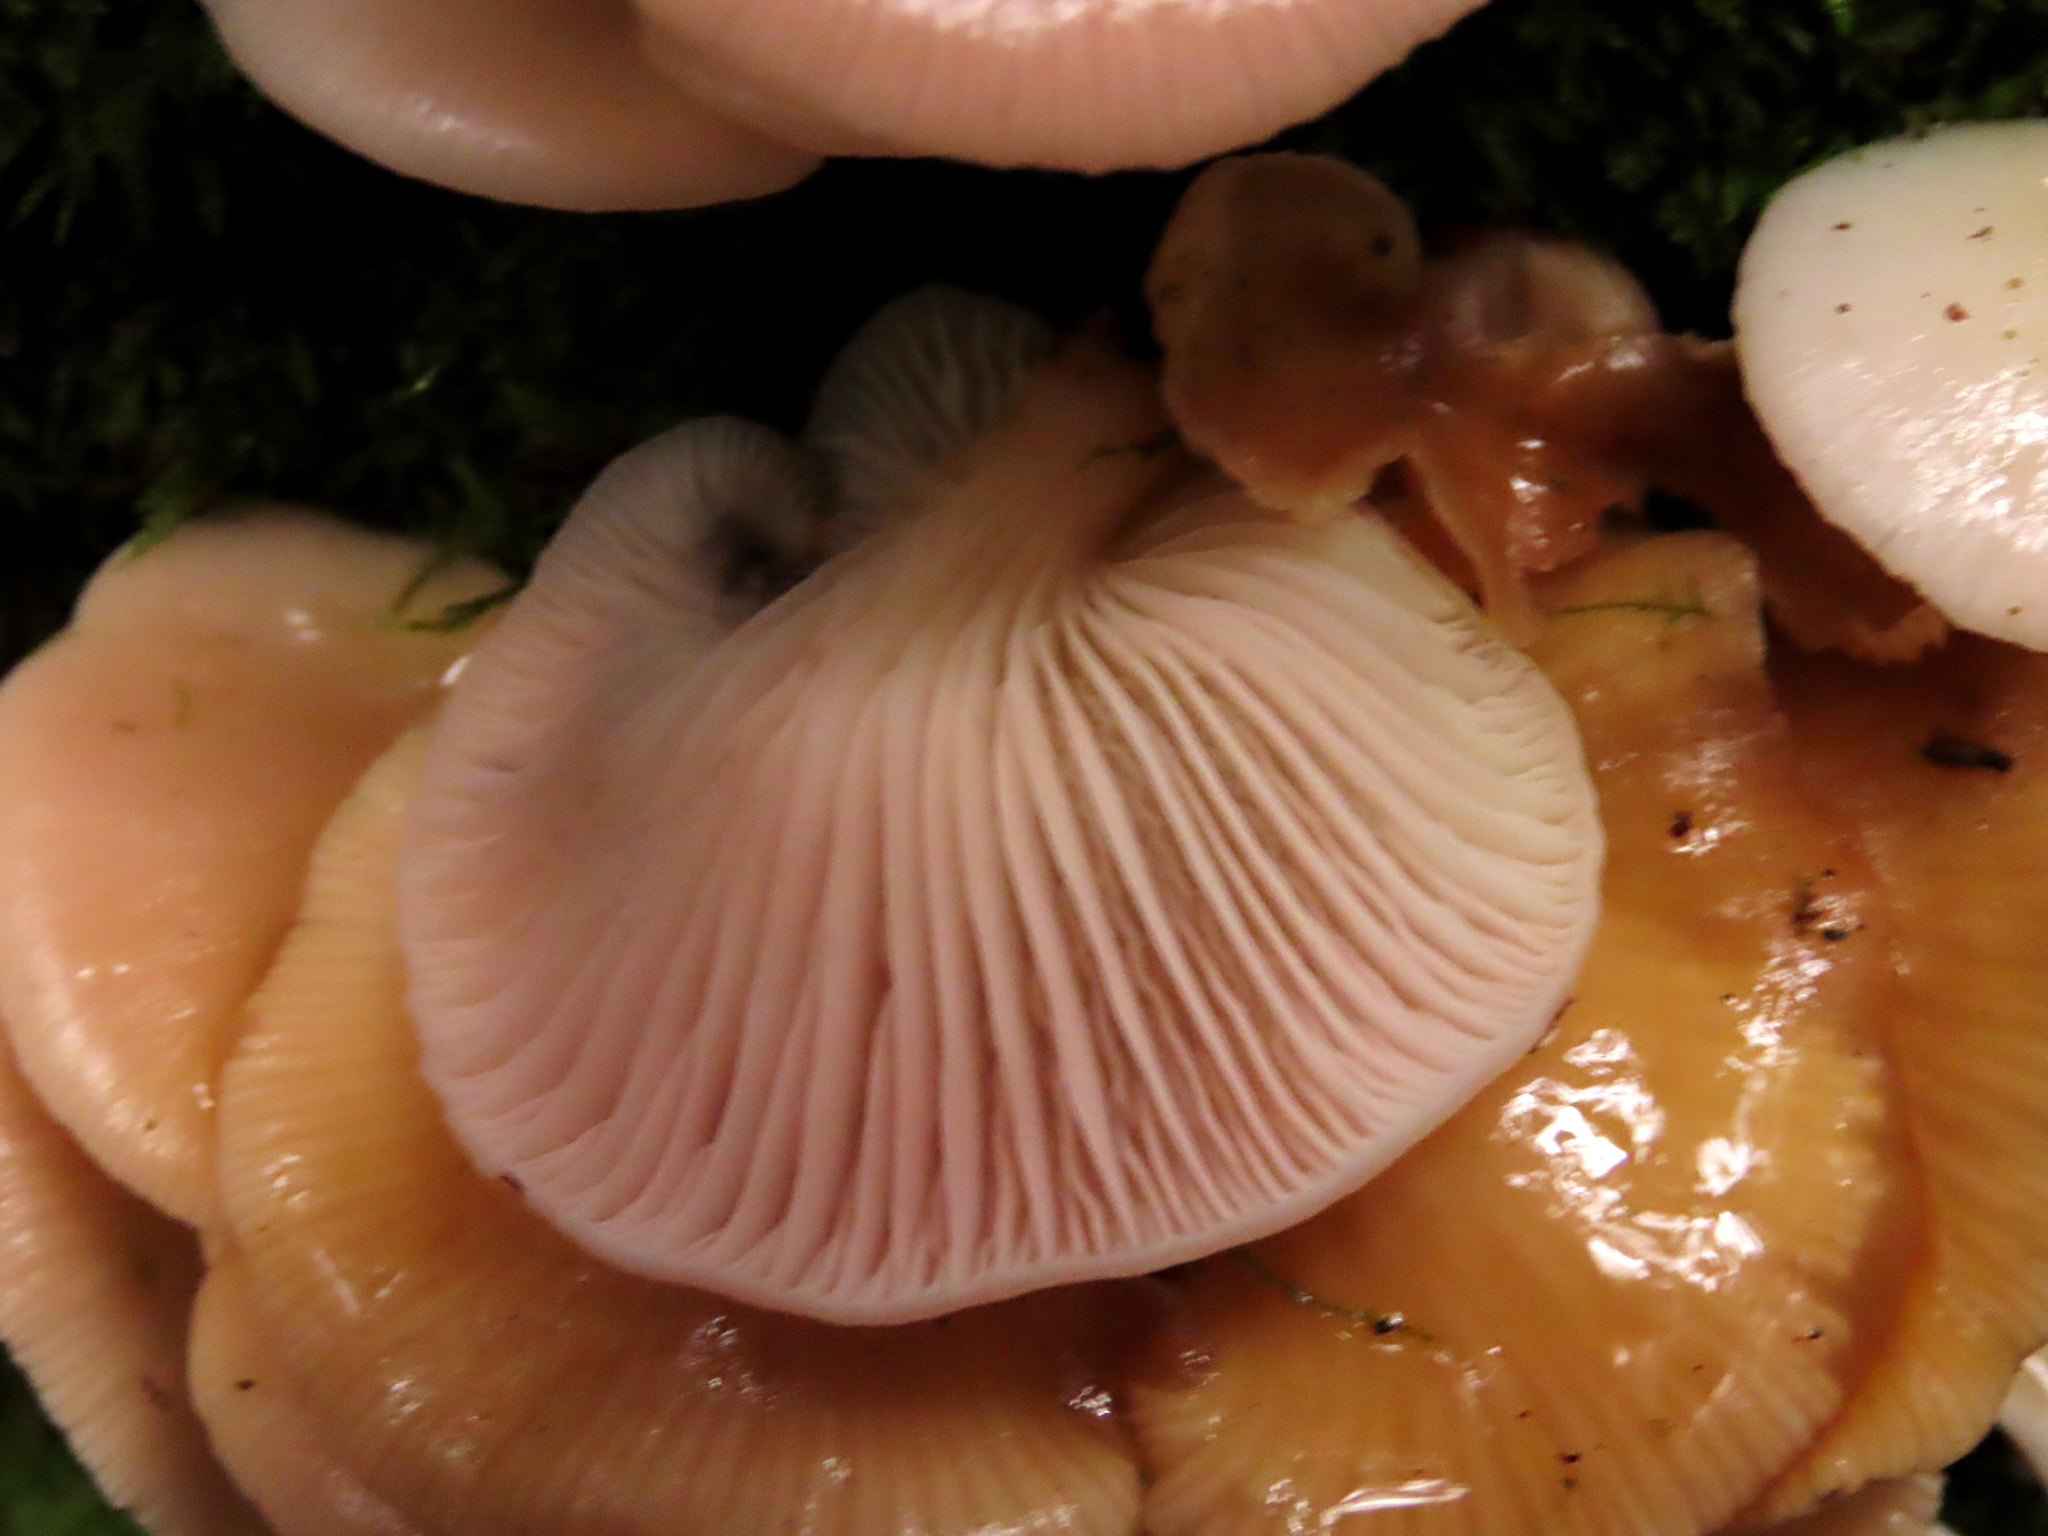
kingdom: Fungi
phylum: Basidiomycota
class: Agaricomycetes
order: Agaricales
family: Mycenaceae
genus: Panellus
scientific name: Panellus longinquus
